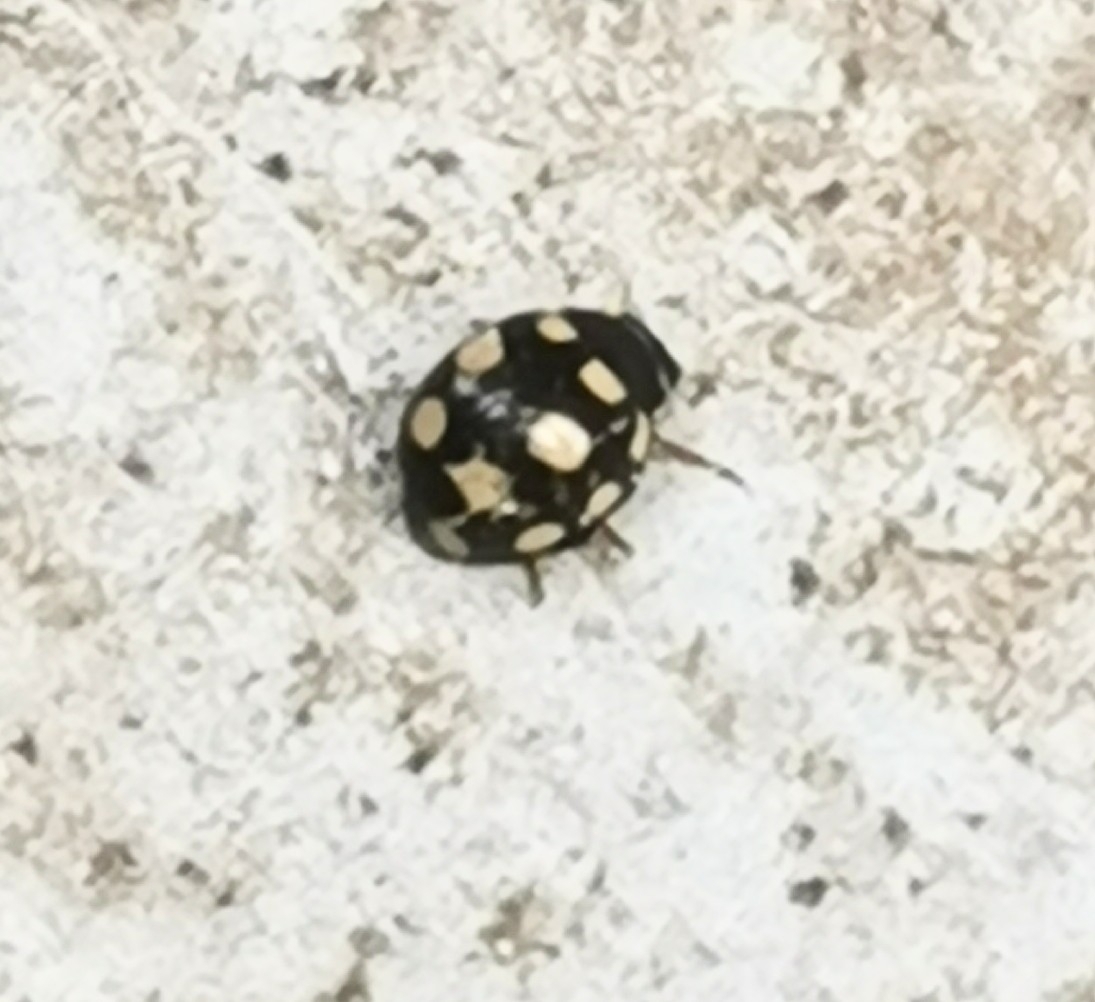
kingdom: Animalia
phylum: Arthropoda
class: Insecta
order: Coleoptera
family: Coccinellidae
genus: Coccinula
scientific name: Coccinula quatuordecimpustulata
